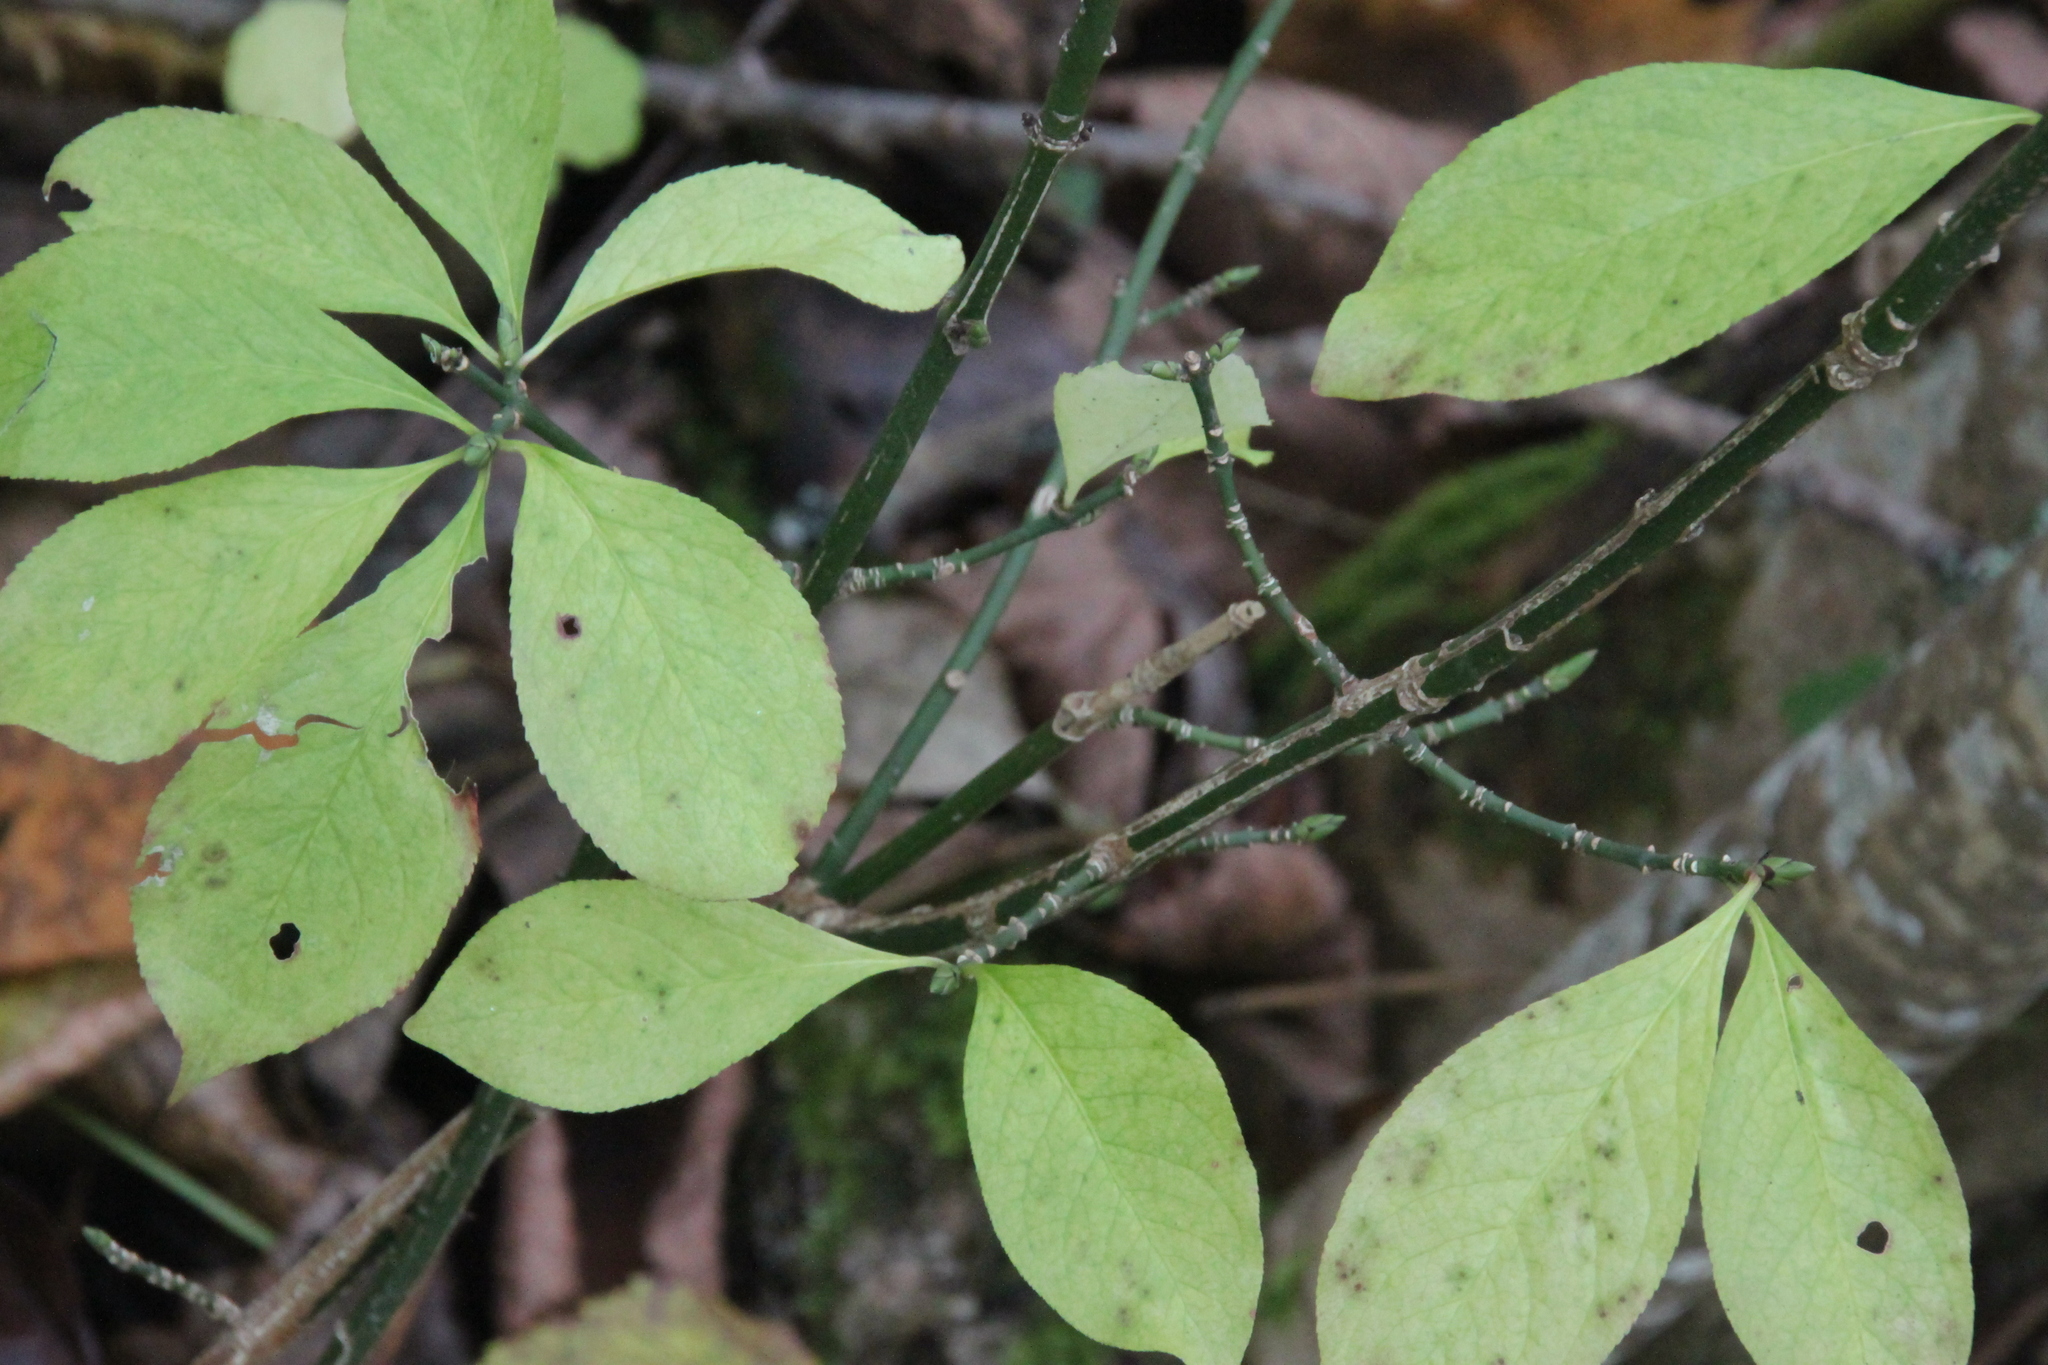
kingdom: Plantae
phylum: Tracheophyta
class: Magnoliopsida
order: Celastrales
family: Celastraceae
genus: Euonymus
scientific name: Euonymus europaeus
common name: Spindle
